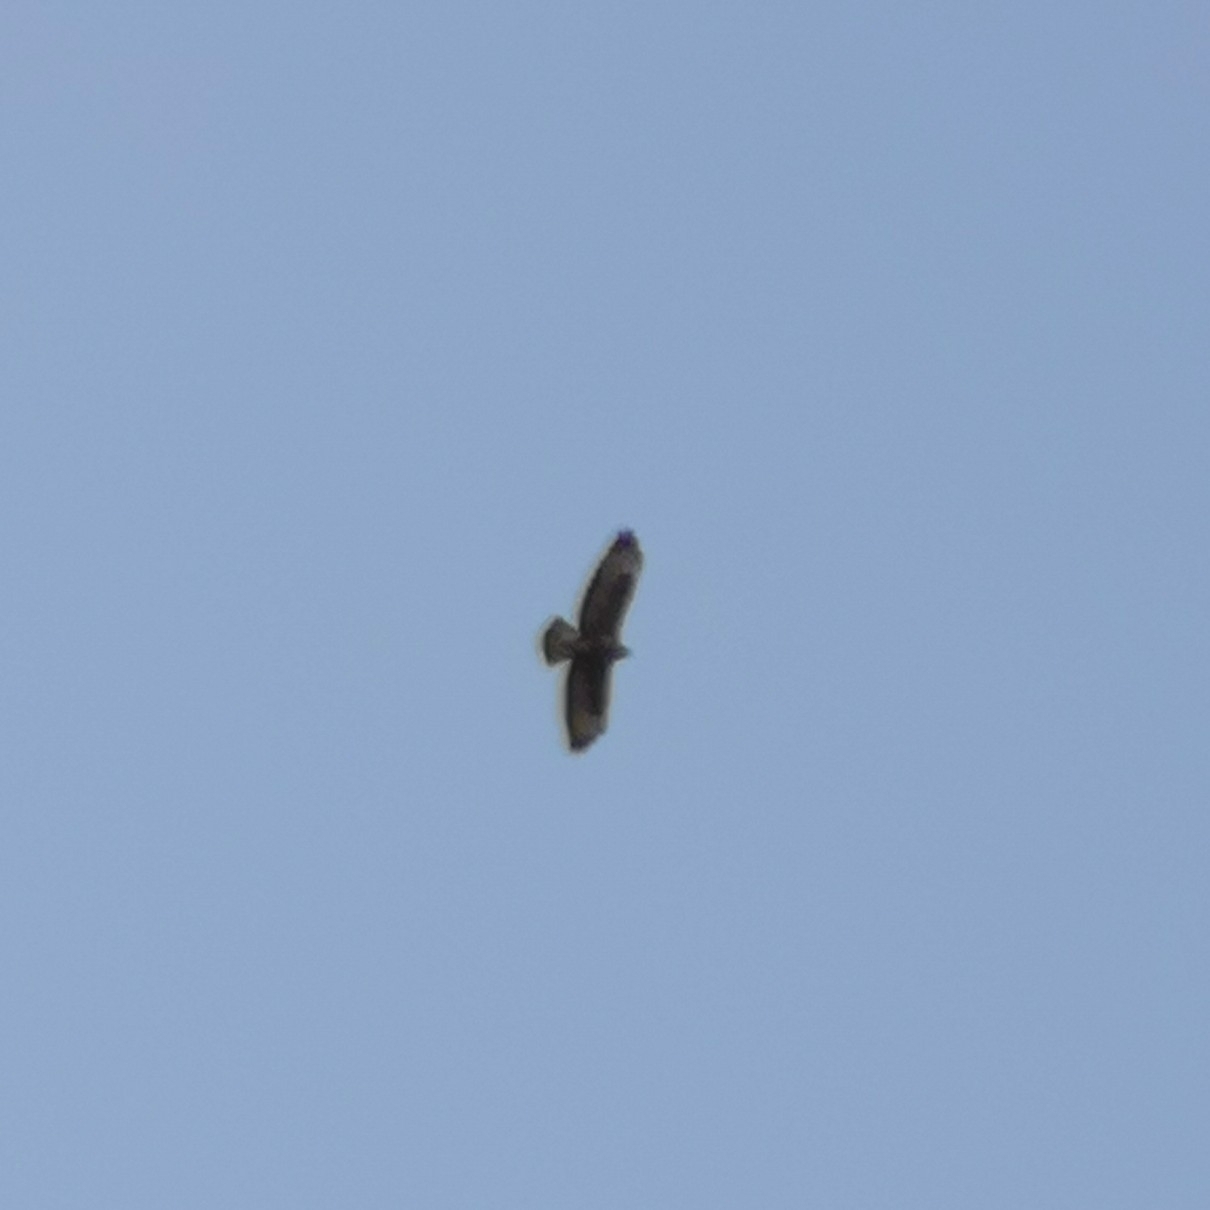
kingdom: Animalia
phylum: Chordata
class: Aves
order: Accipitriformes
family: Accipitridae
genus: Buteo
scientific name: Buteo buteo
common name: Common buzzard
